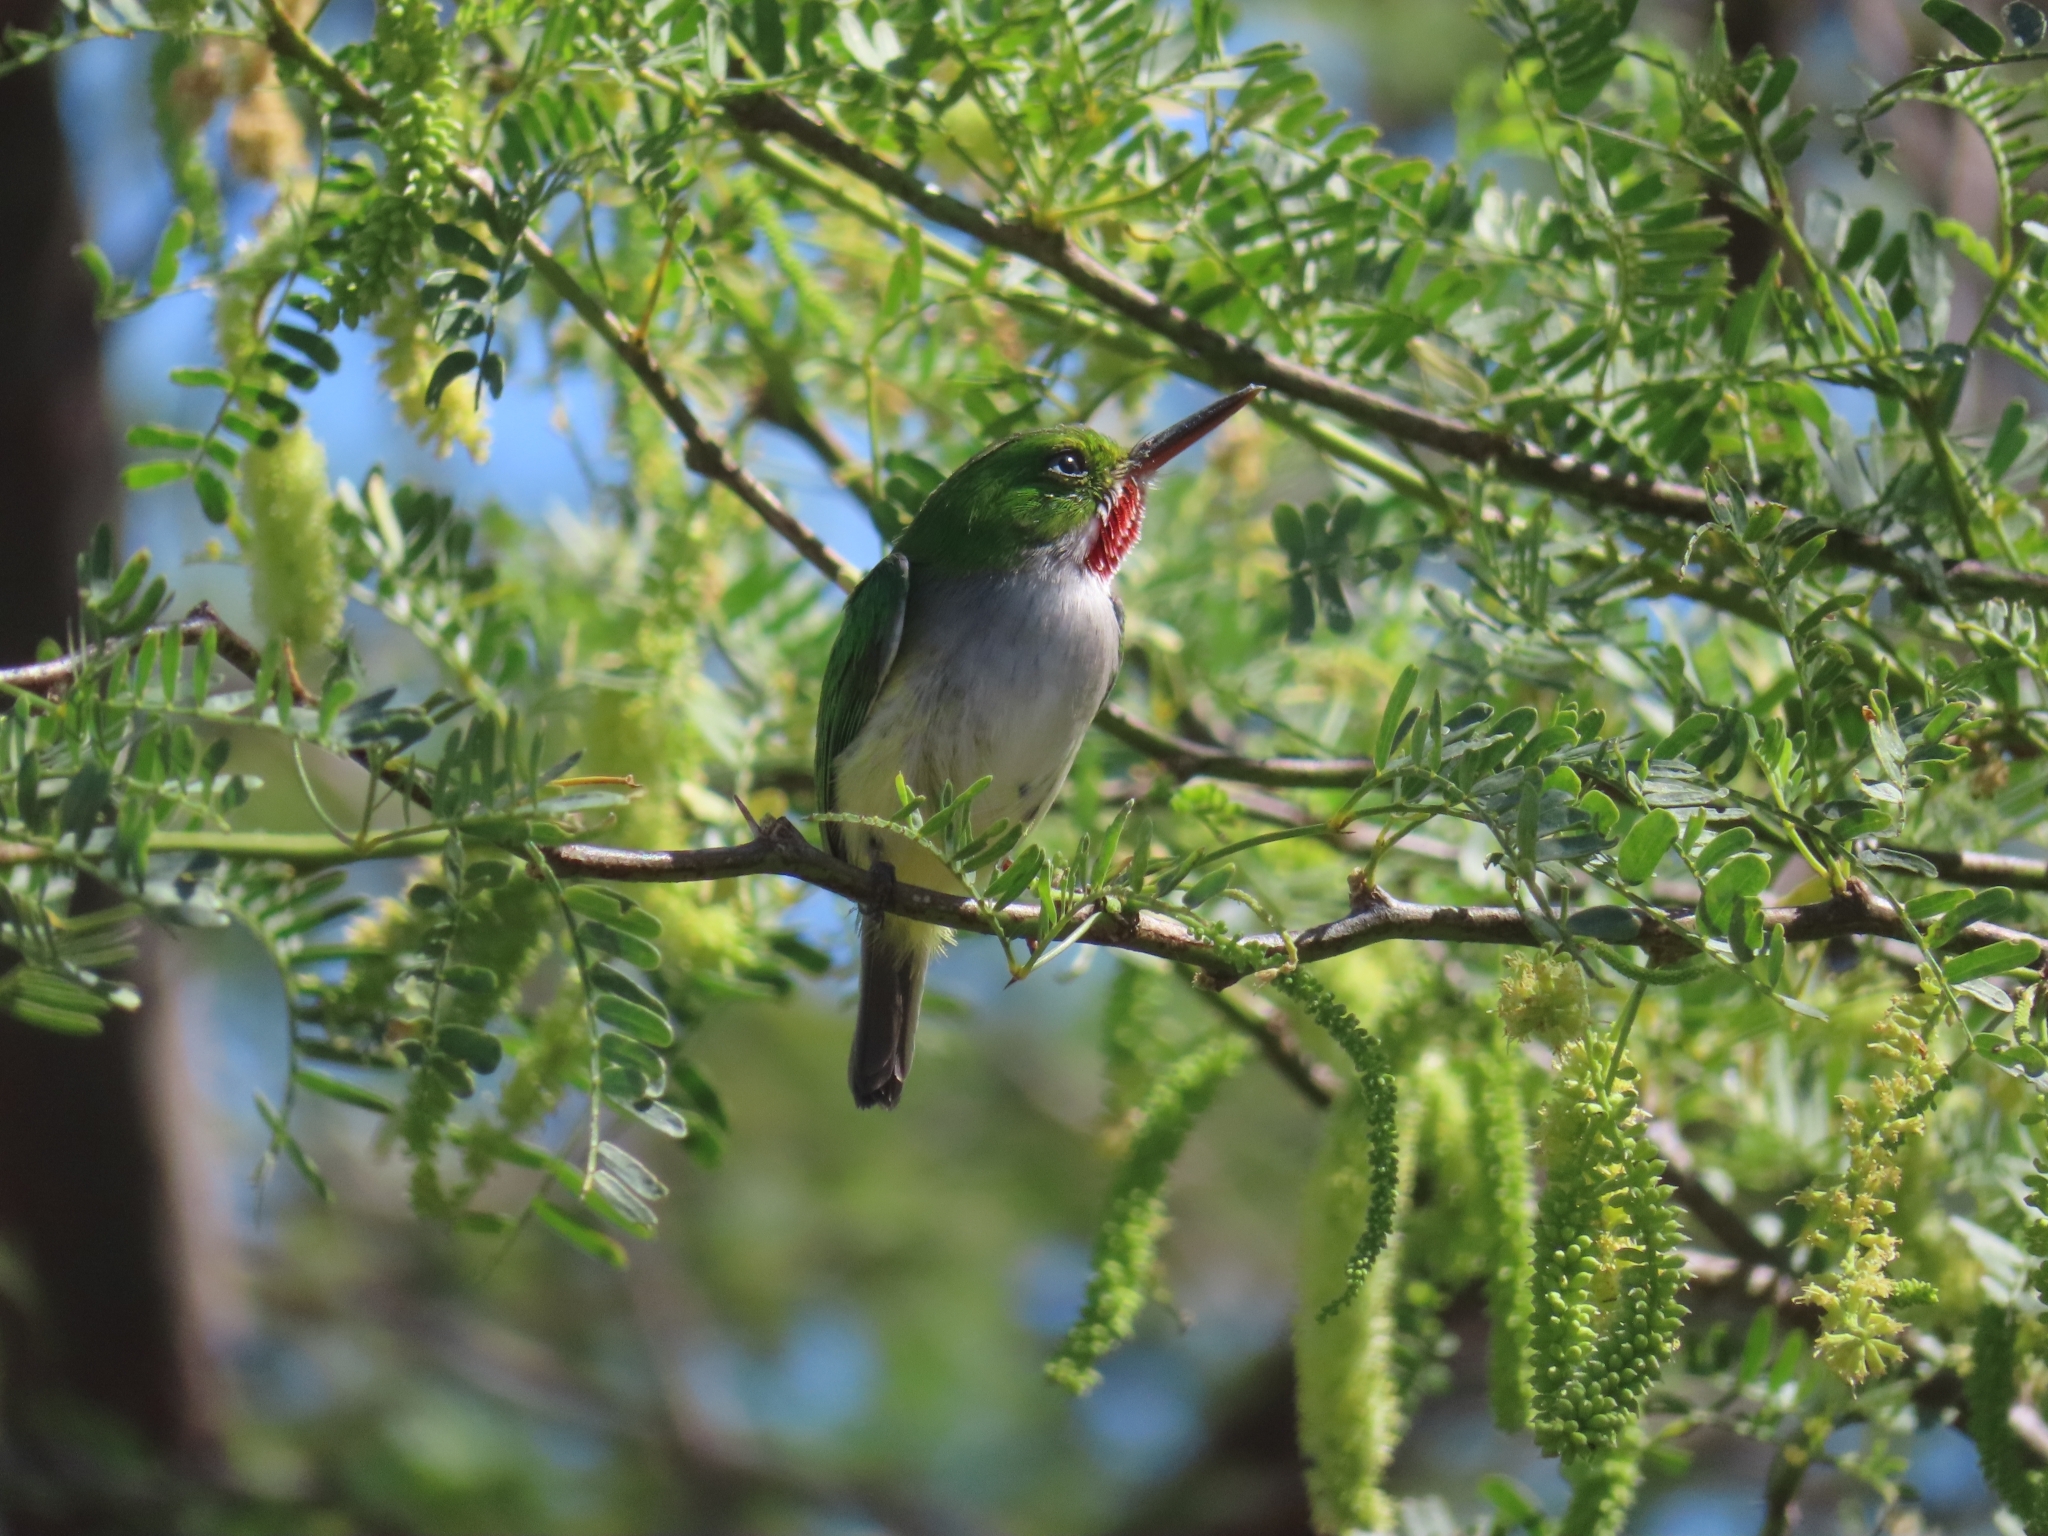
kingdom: Animalia
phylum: Chordata
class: Aves
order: Coraciiformes
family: Todidae
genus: Todus
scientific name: Todus mexicanus
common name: Puerto rican tody
